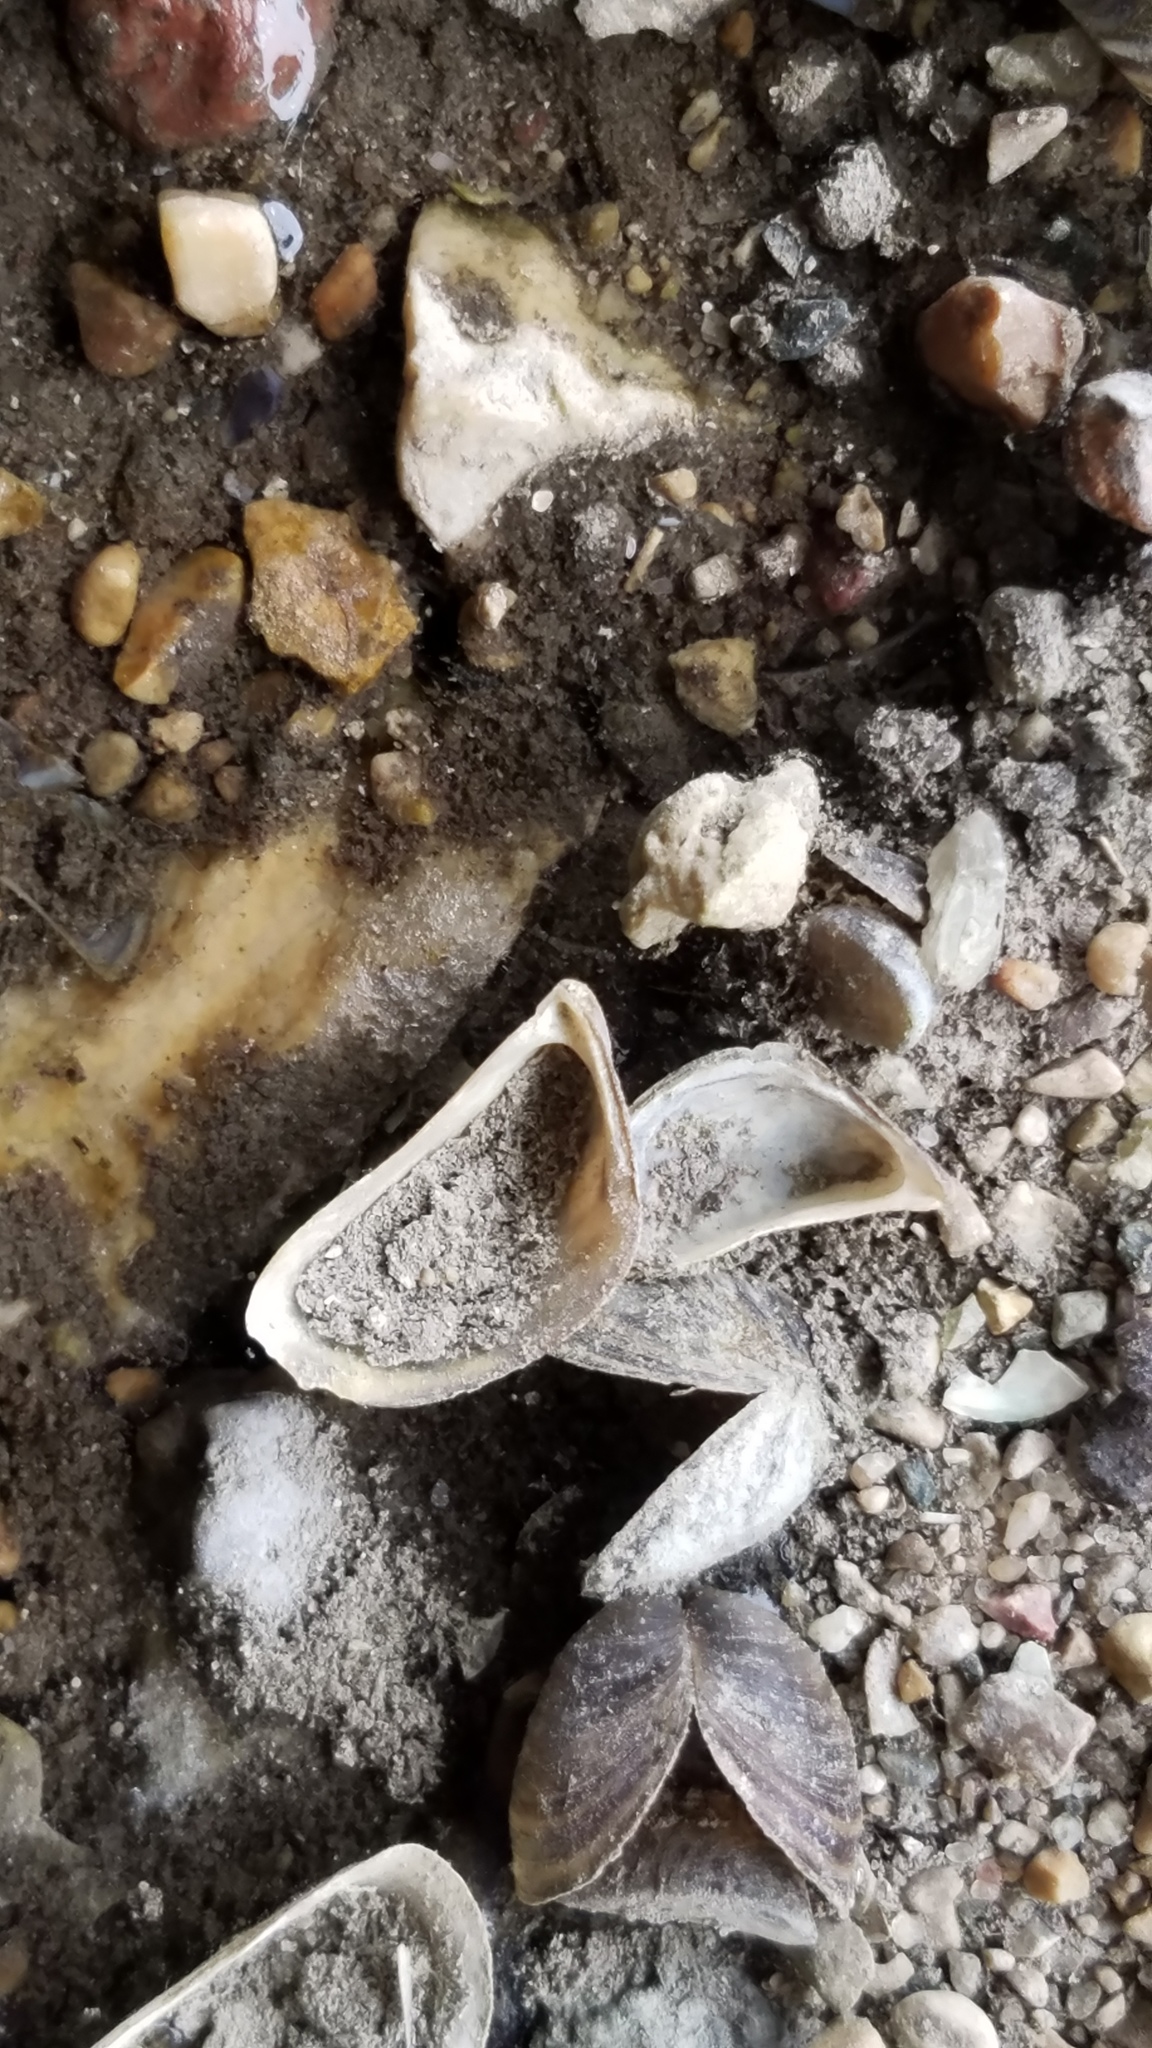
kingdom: Animalia
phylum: Mollusca
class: Bivalvia
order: Myida
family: Dreissenidae
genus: Dreissena
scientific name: Dreissena polymorpha
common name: Zebra mussel
